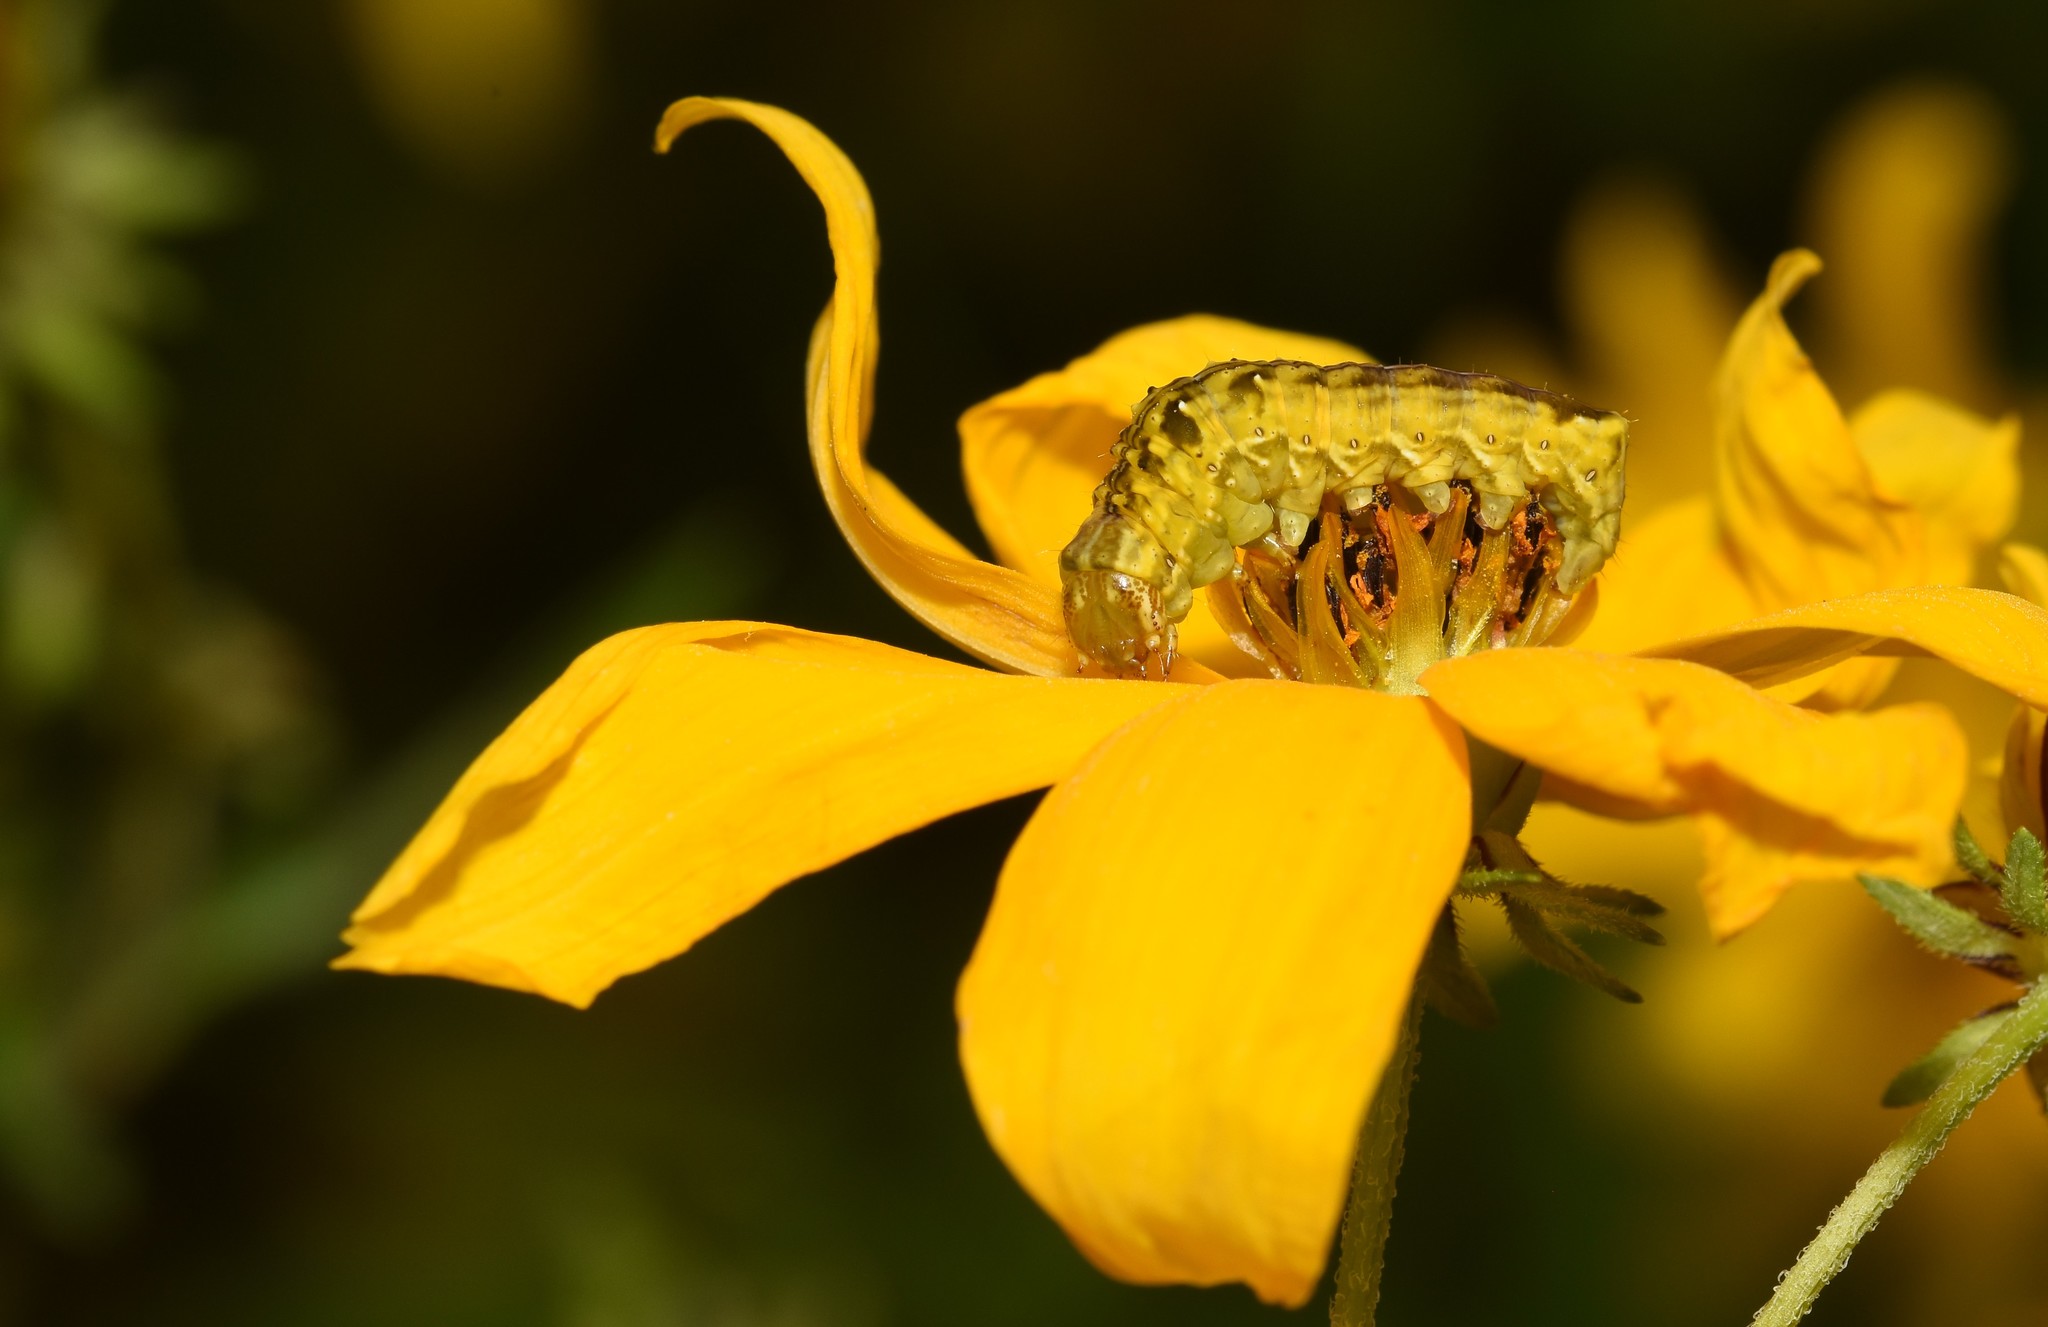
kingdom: Animalia
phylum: Arthropoda
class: Insecta
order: Lepidoptera
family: Noctuidae
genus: Cirrhophanus
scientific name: Cirrhophanus triangulifer
